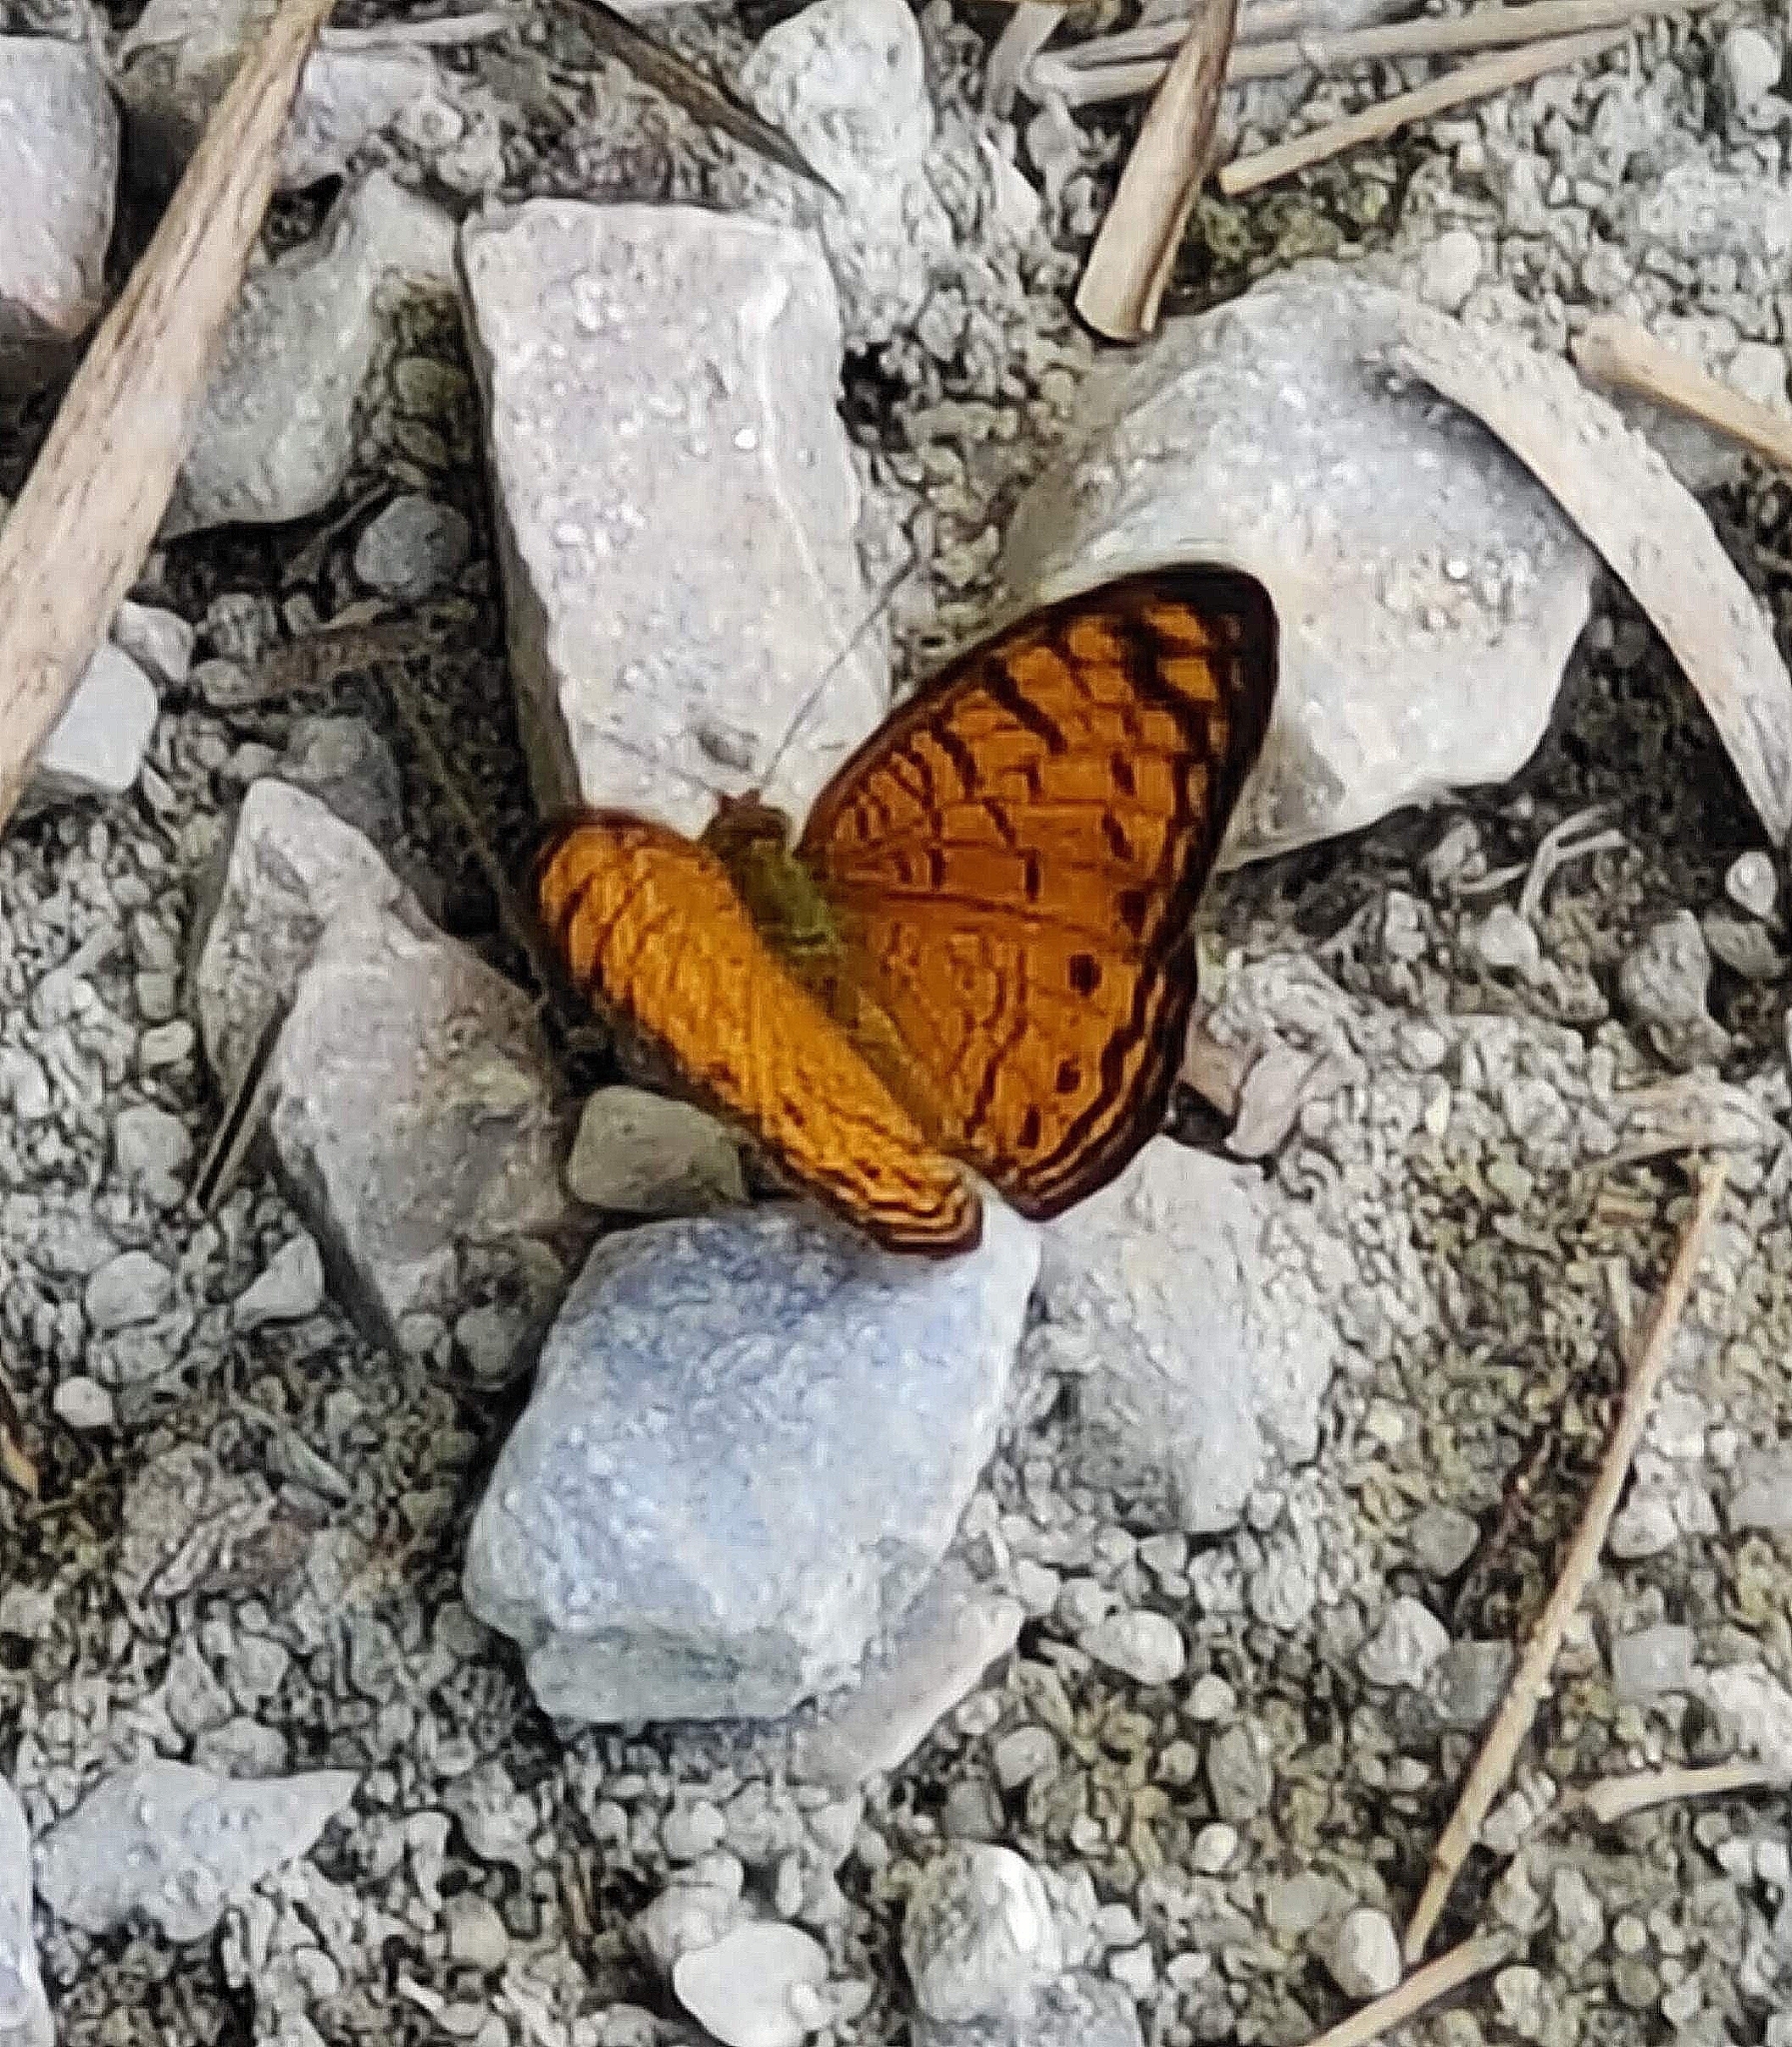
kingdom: Animalia
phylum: Arthropoda
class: Insecta
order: Lepidoptera
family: Nymphalidae
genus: Phalanta
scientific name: Phalanta alcippe
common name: Small leopard
